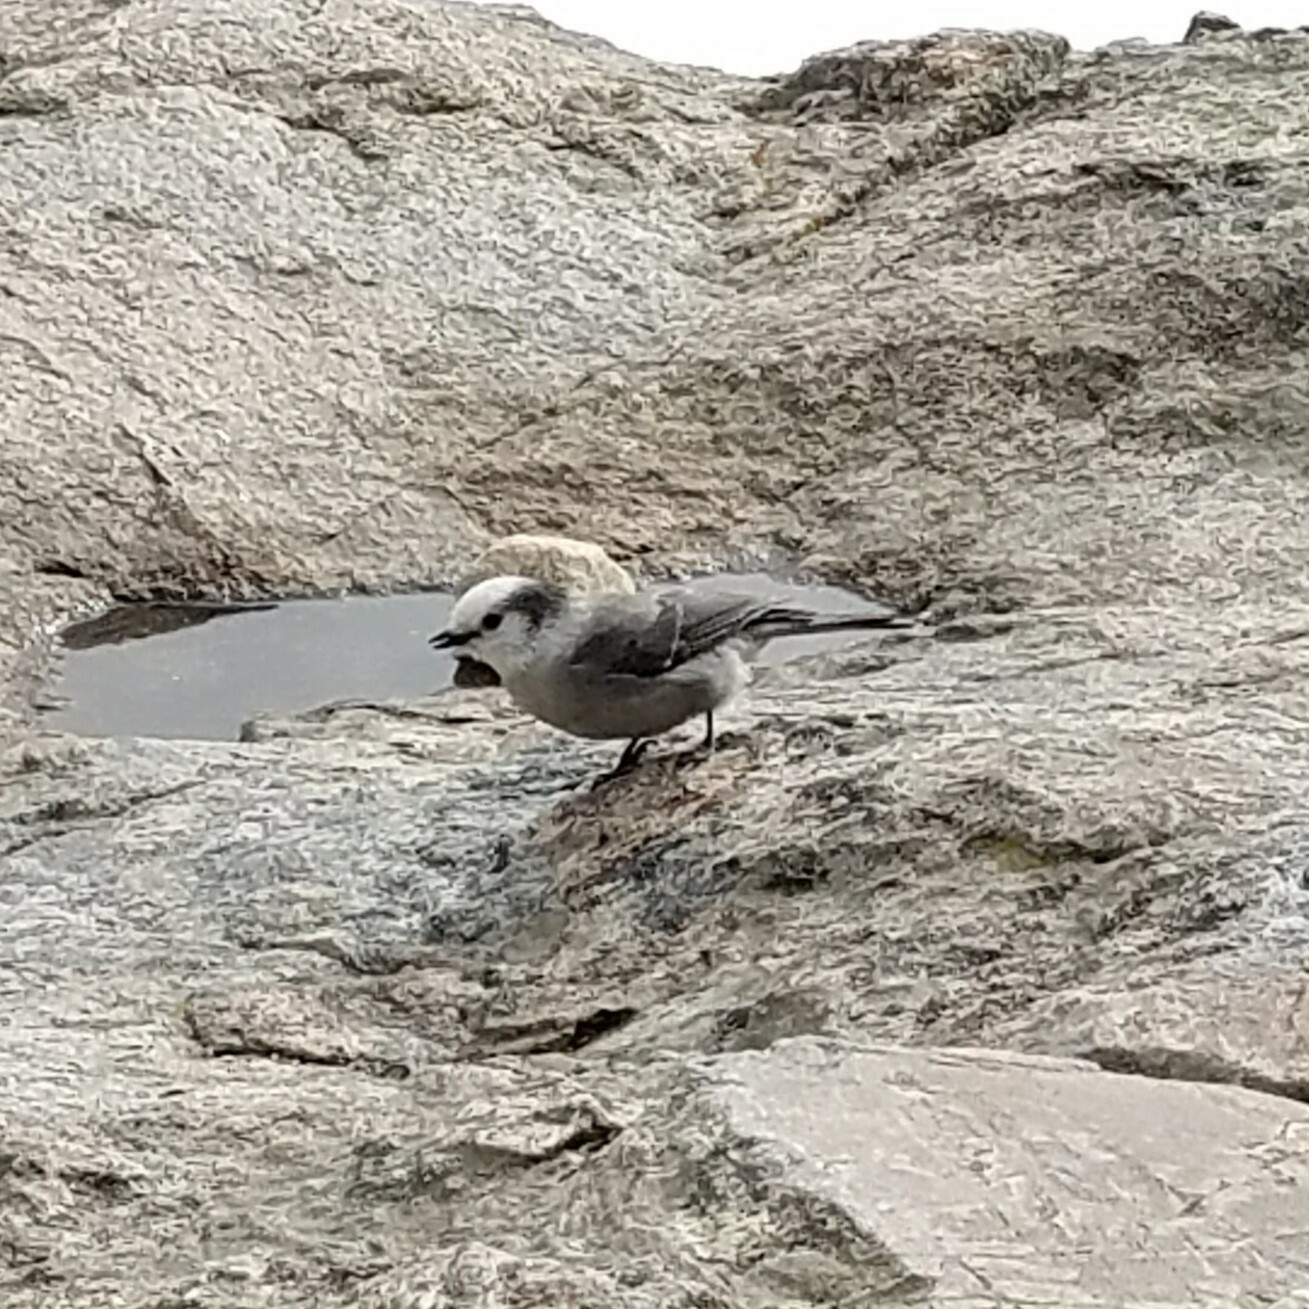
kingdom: Animalia
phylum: Chordata
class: Aves
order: Passeriformes
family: Corvidae
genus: Perisoreus
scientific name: Perisoreus canadensis
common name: Gray jay
